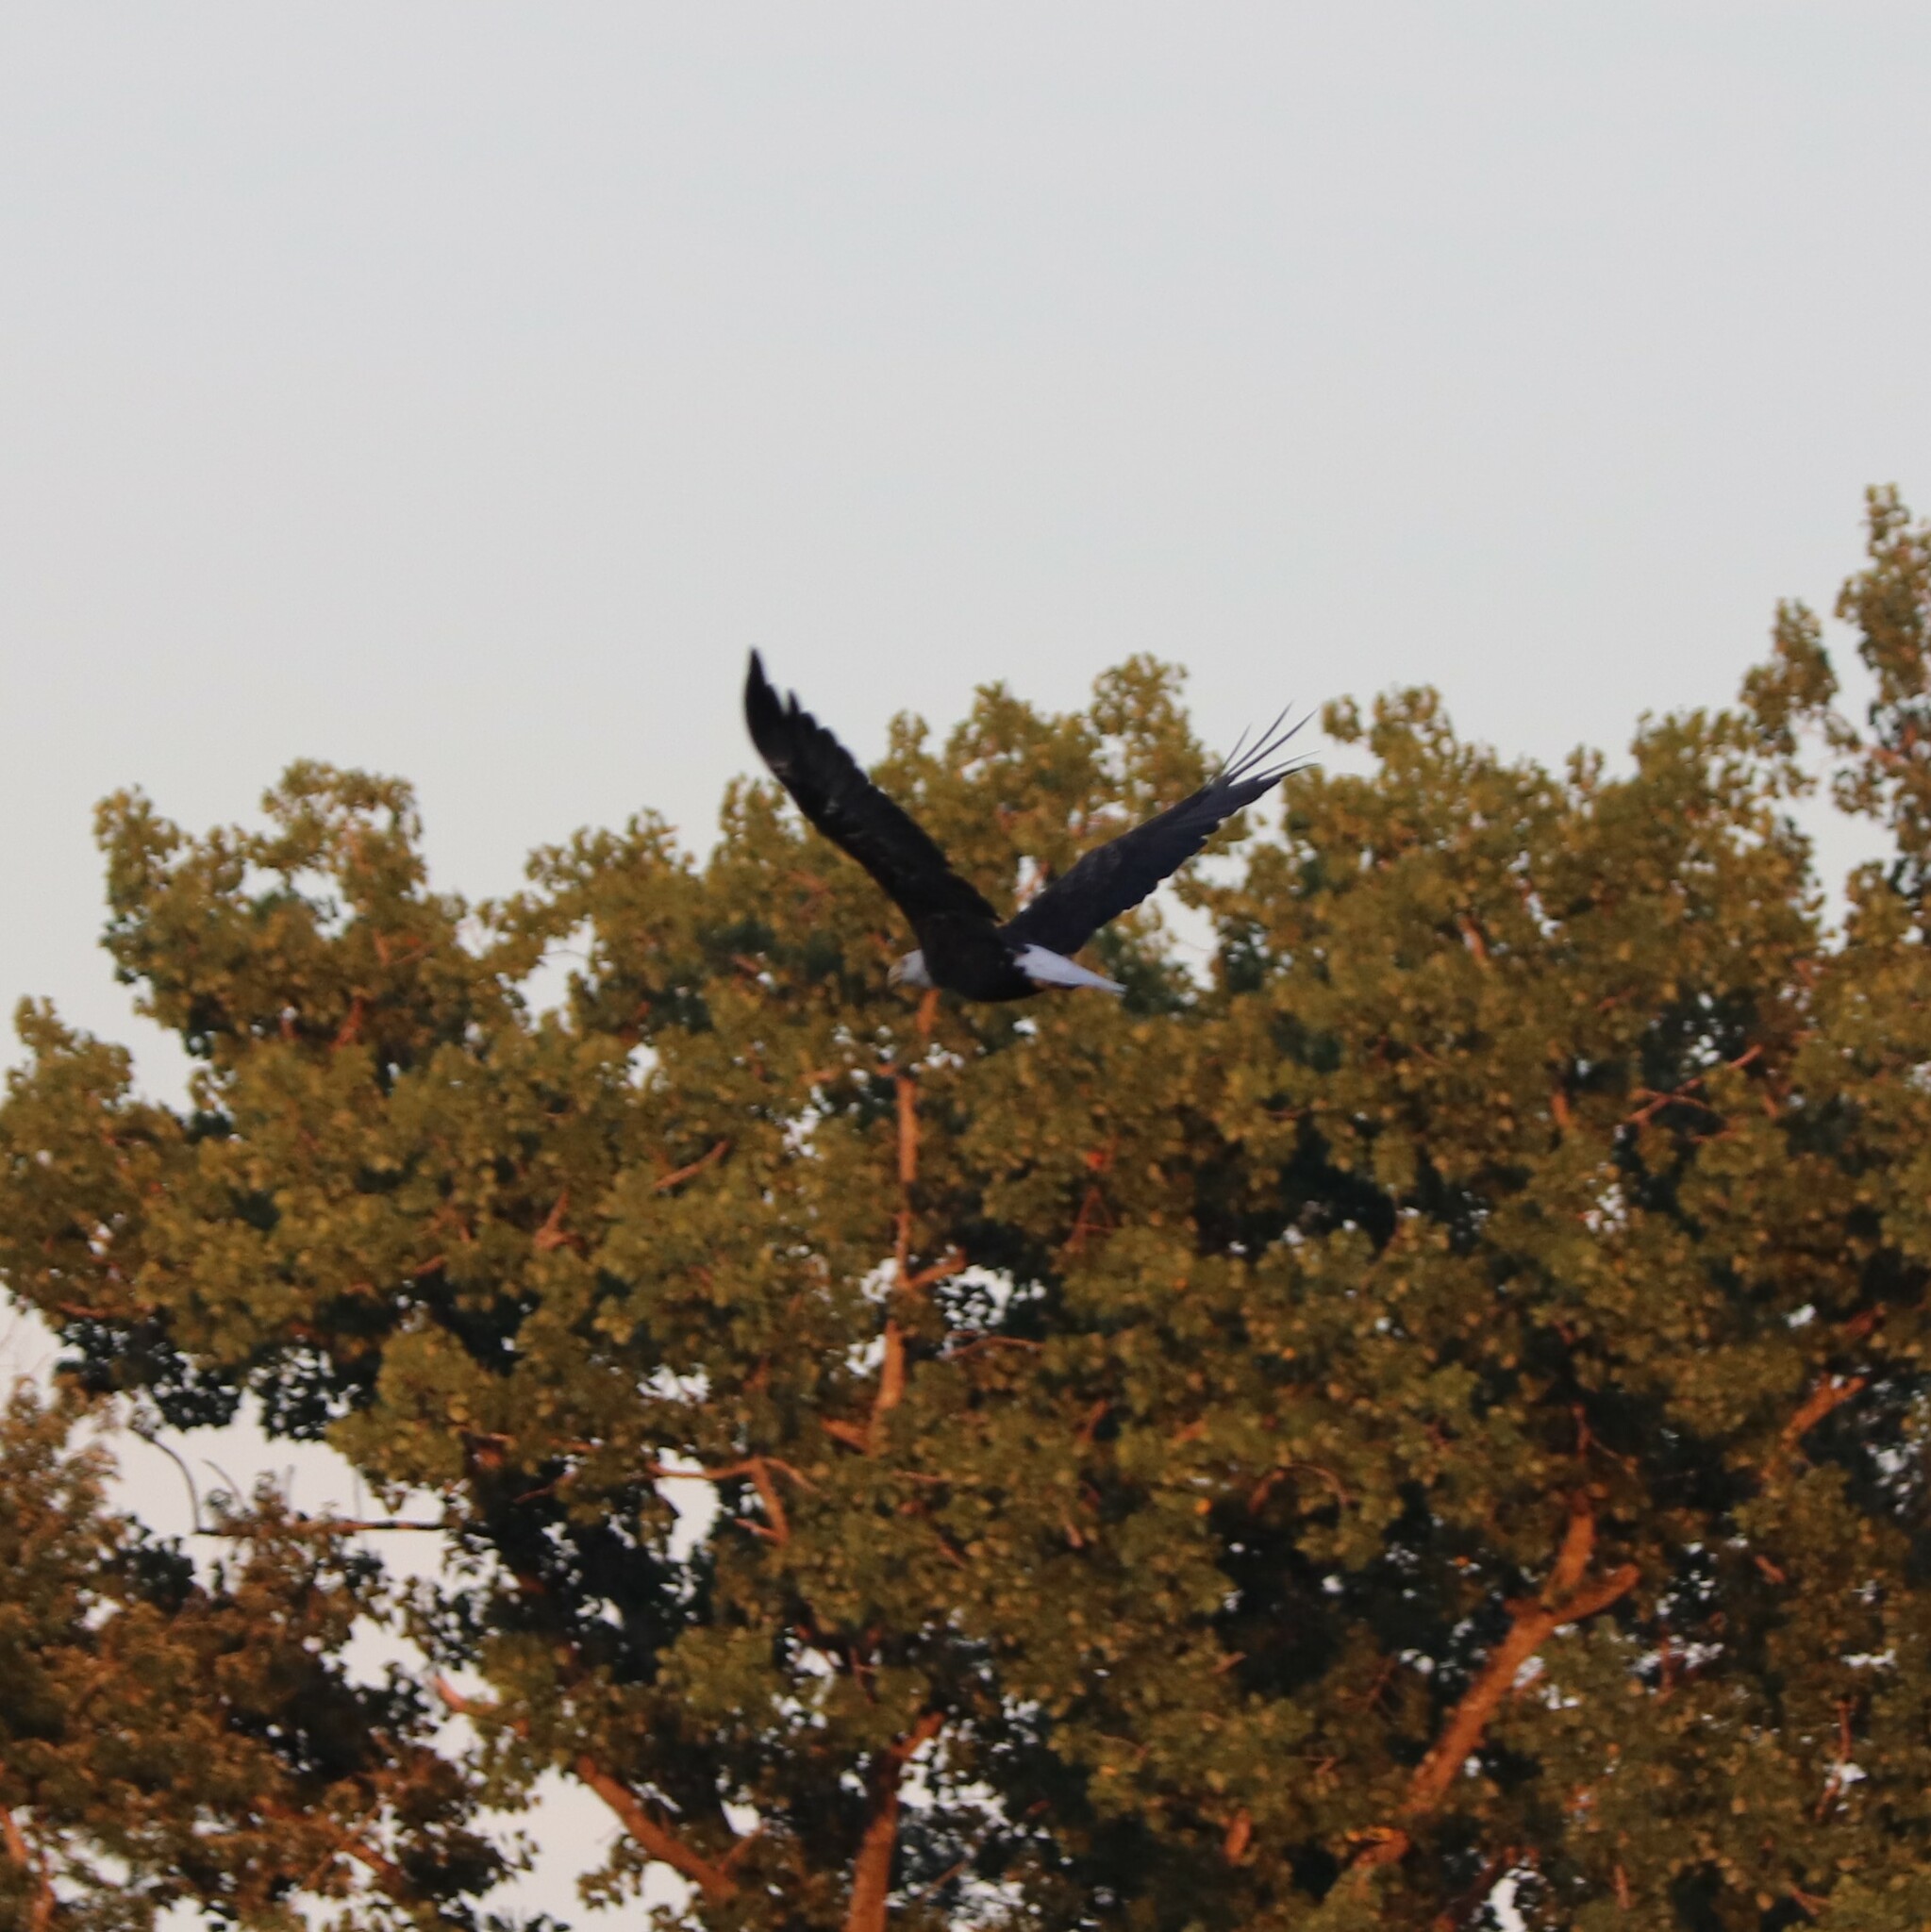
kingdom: Animalia
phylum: Chordata
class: Aves
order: Accipitriformes
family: Accipitridae
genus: Haliaeetus
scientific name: Haliaeetus leucocephalus
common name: Bald eagle
